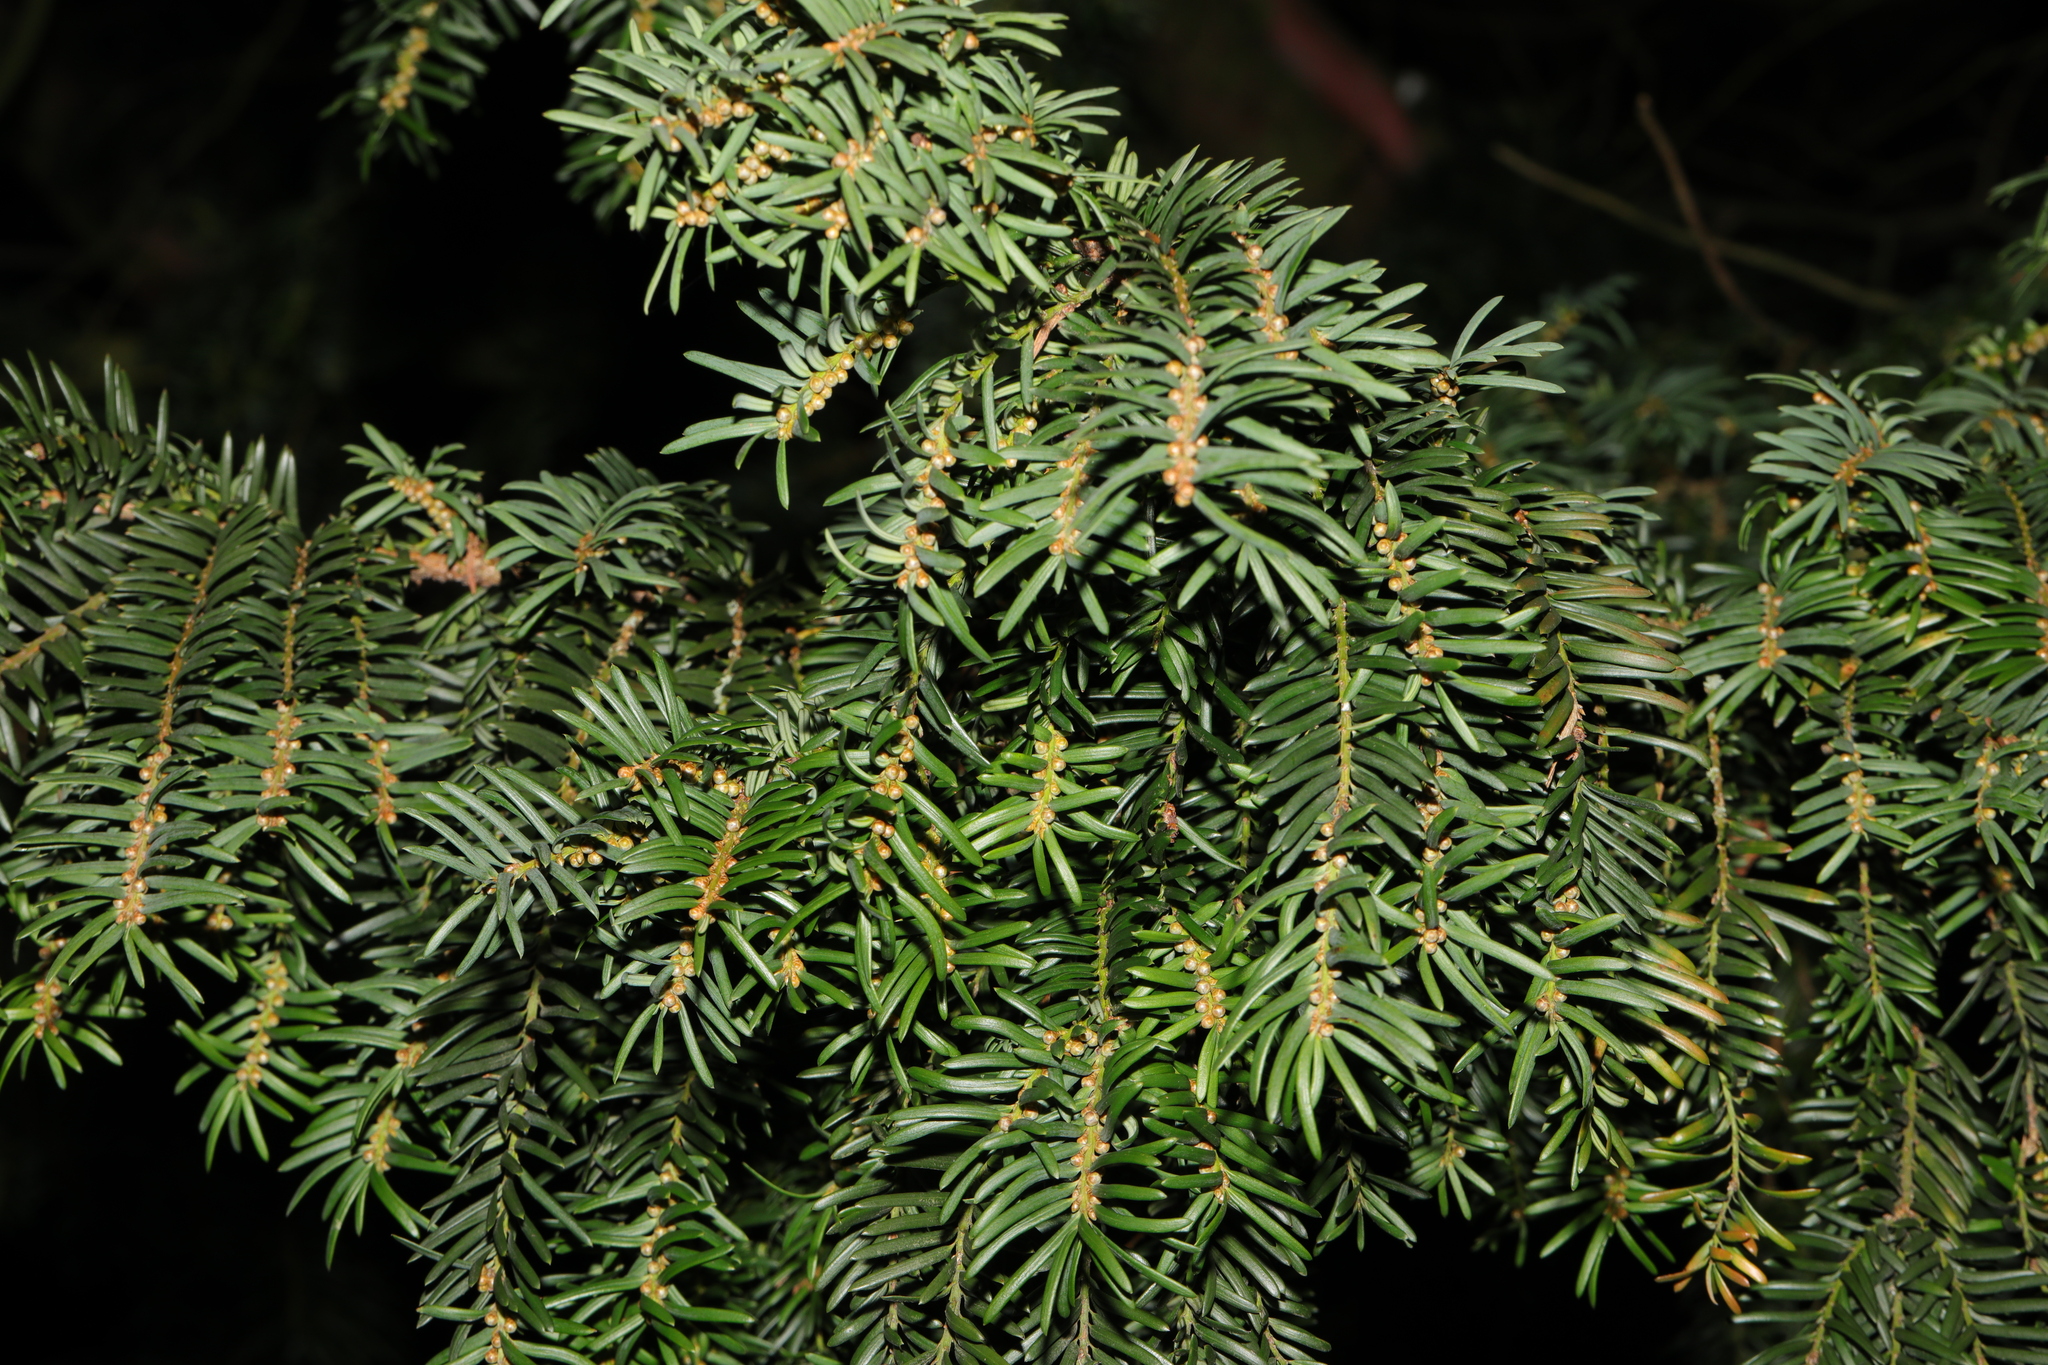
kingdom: Plantae
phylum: Tracheophyta
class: Pinopsida
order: Pinales
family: Taxaceae
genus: Taxus
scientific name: Taxus baccata
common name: Yew
